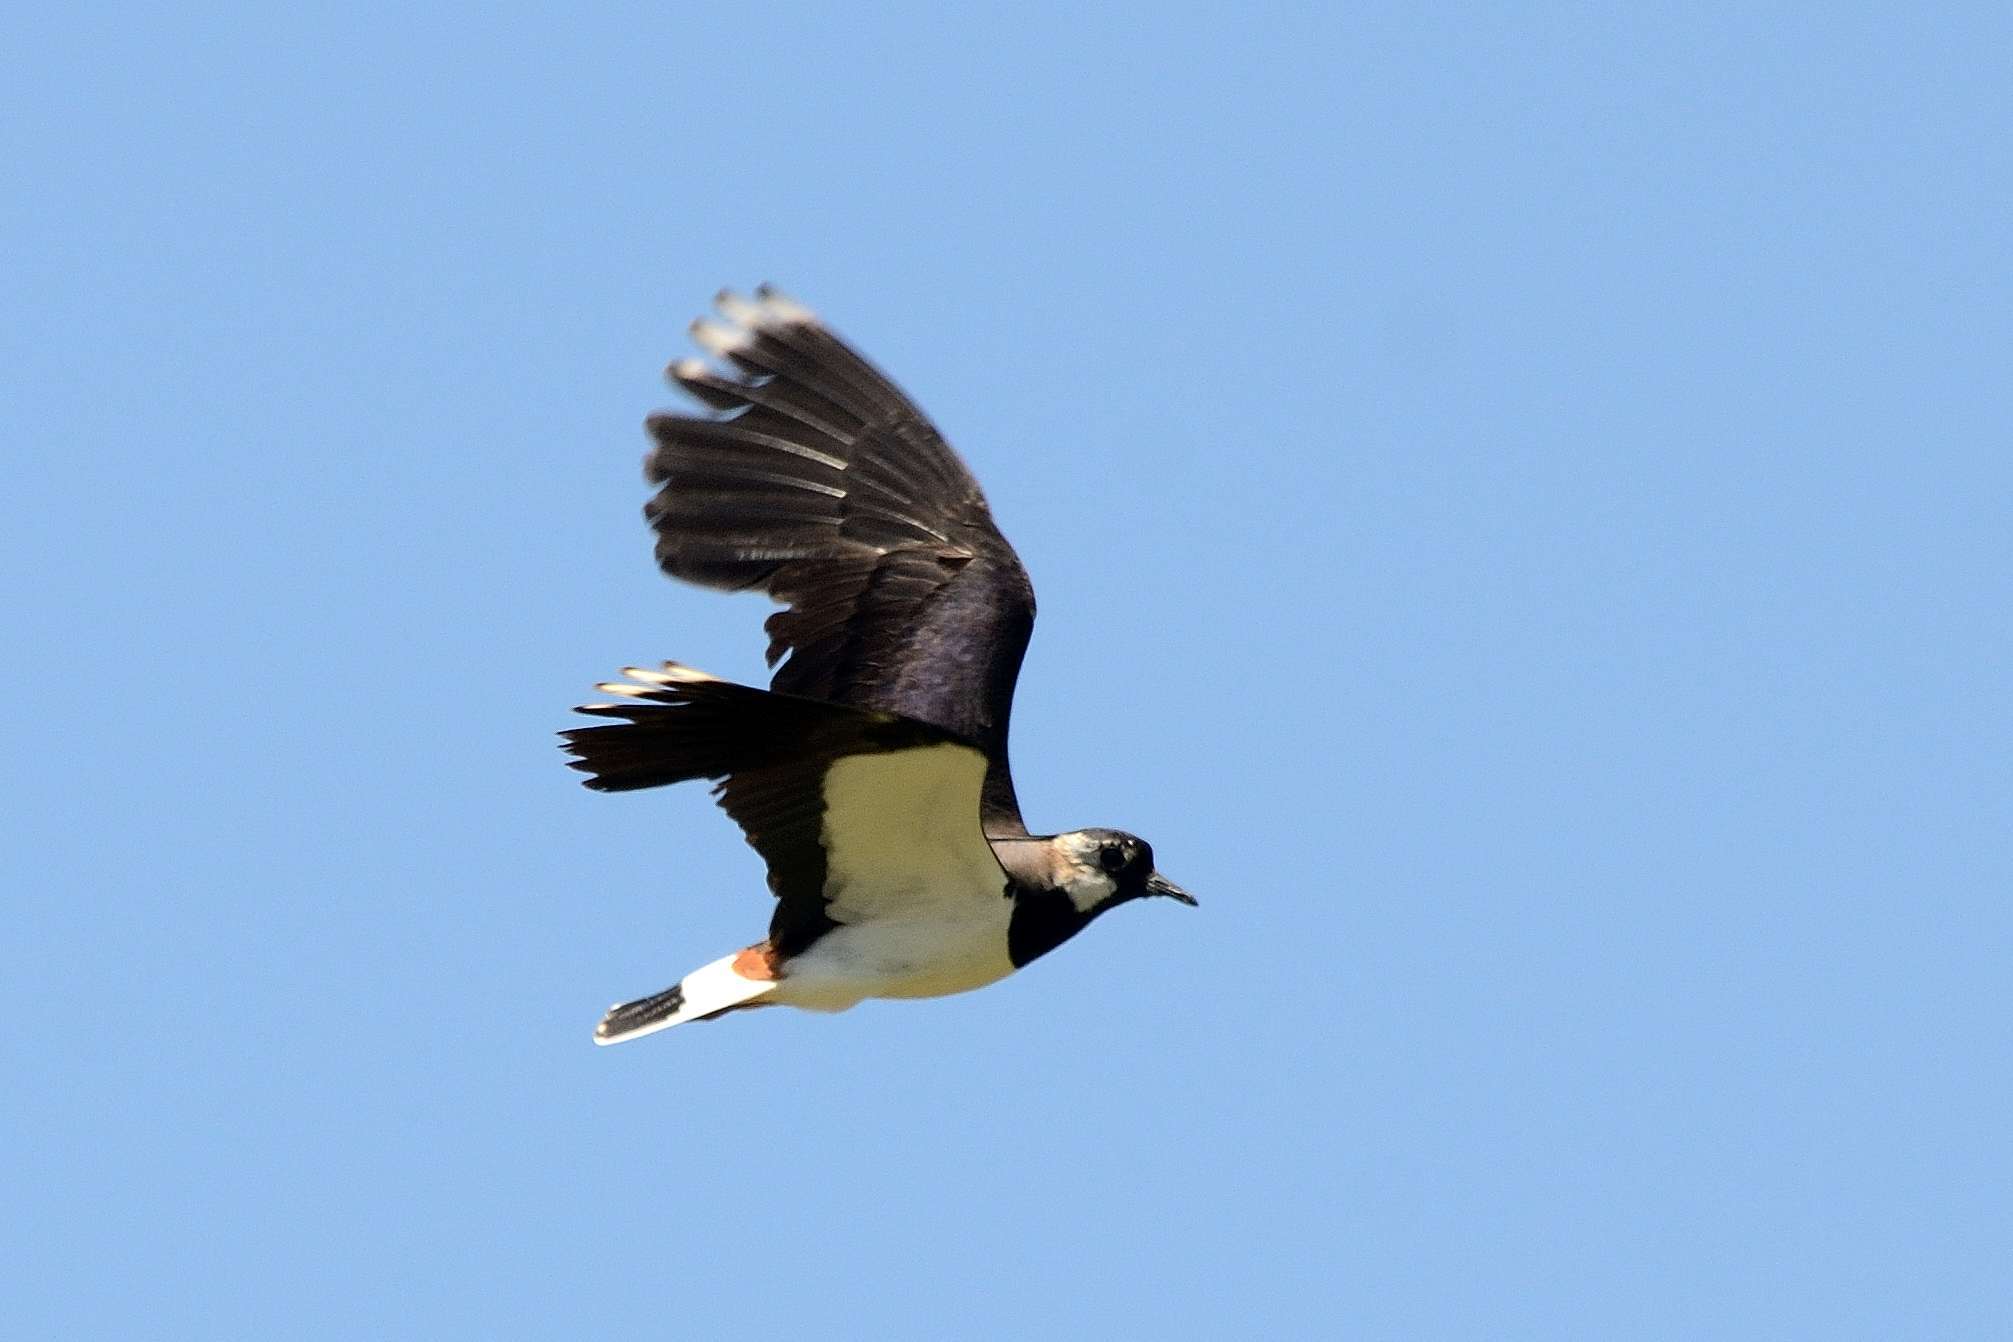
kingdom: Animalia
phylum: Chordata
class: Aves
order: Charadriiformes
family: Charadriidae
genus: Vanellus
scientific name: Vanellus vanellus
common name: Northern lapwing
